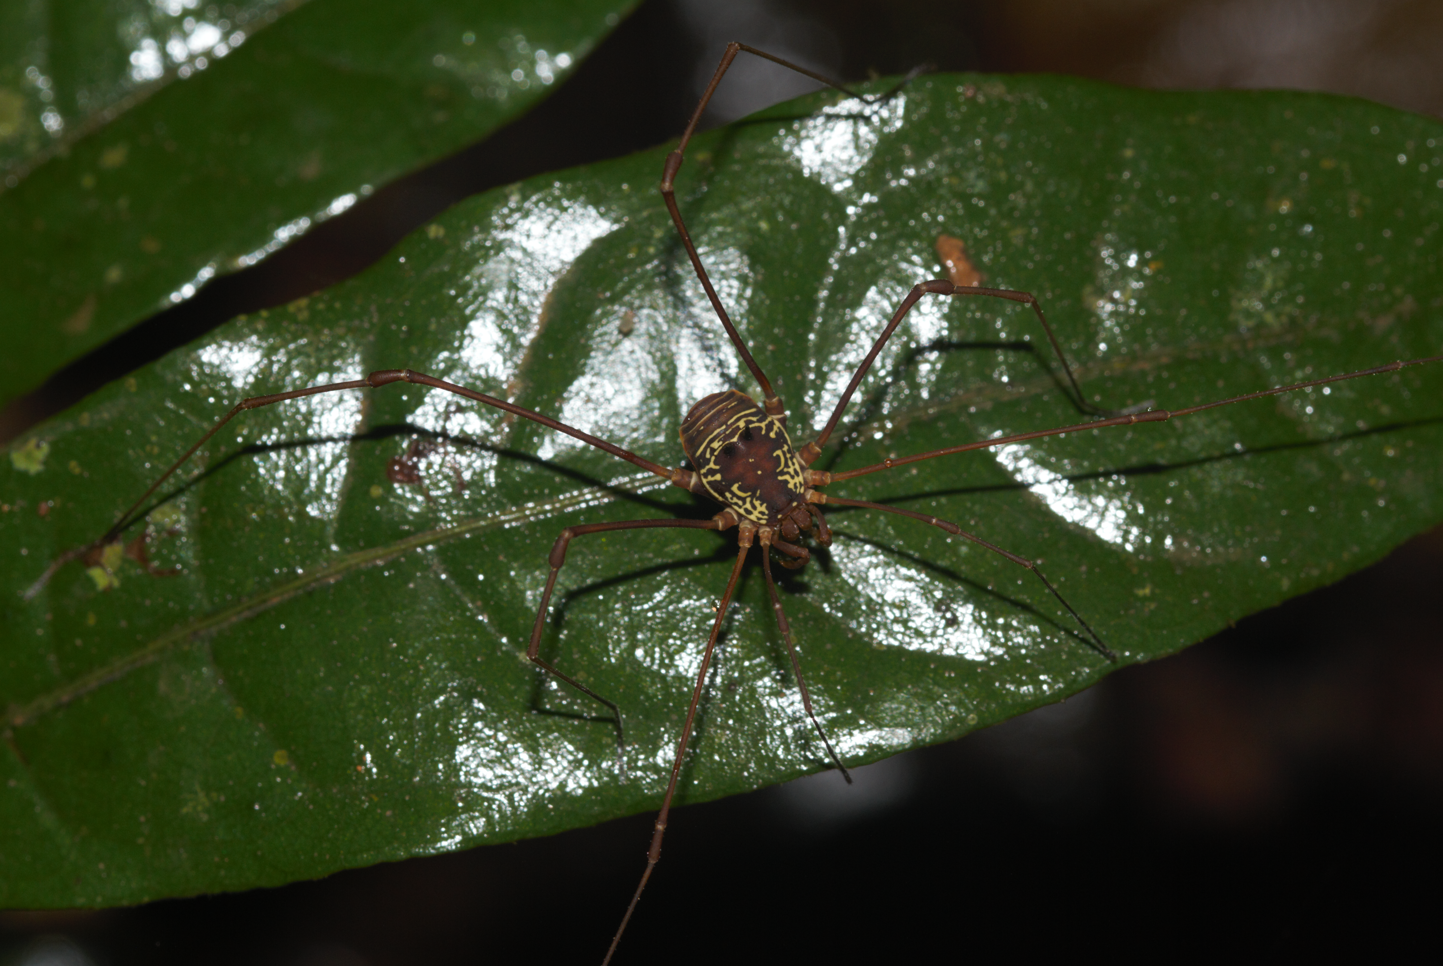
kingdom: Animalia
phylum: Arthropoda
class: Arachnida
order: Opiliones
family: Cosmetidae
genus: Paecilaema
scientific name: Paecilaema sigillatum
